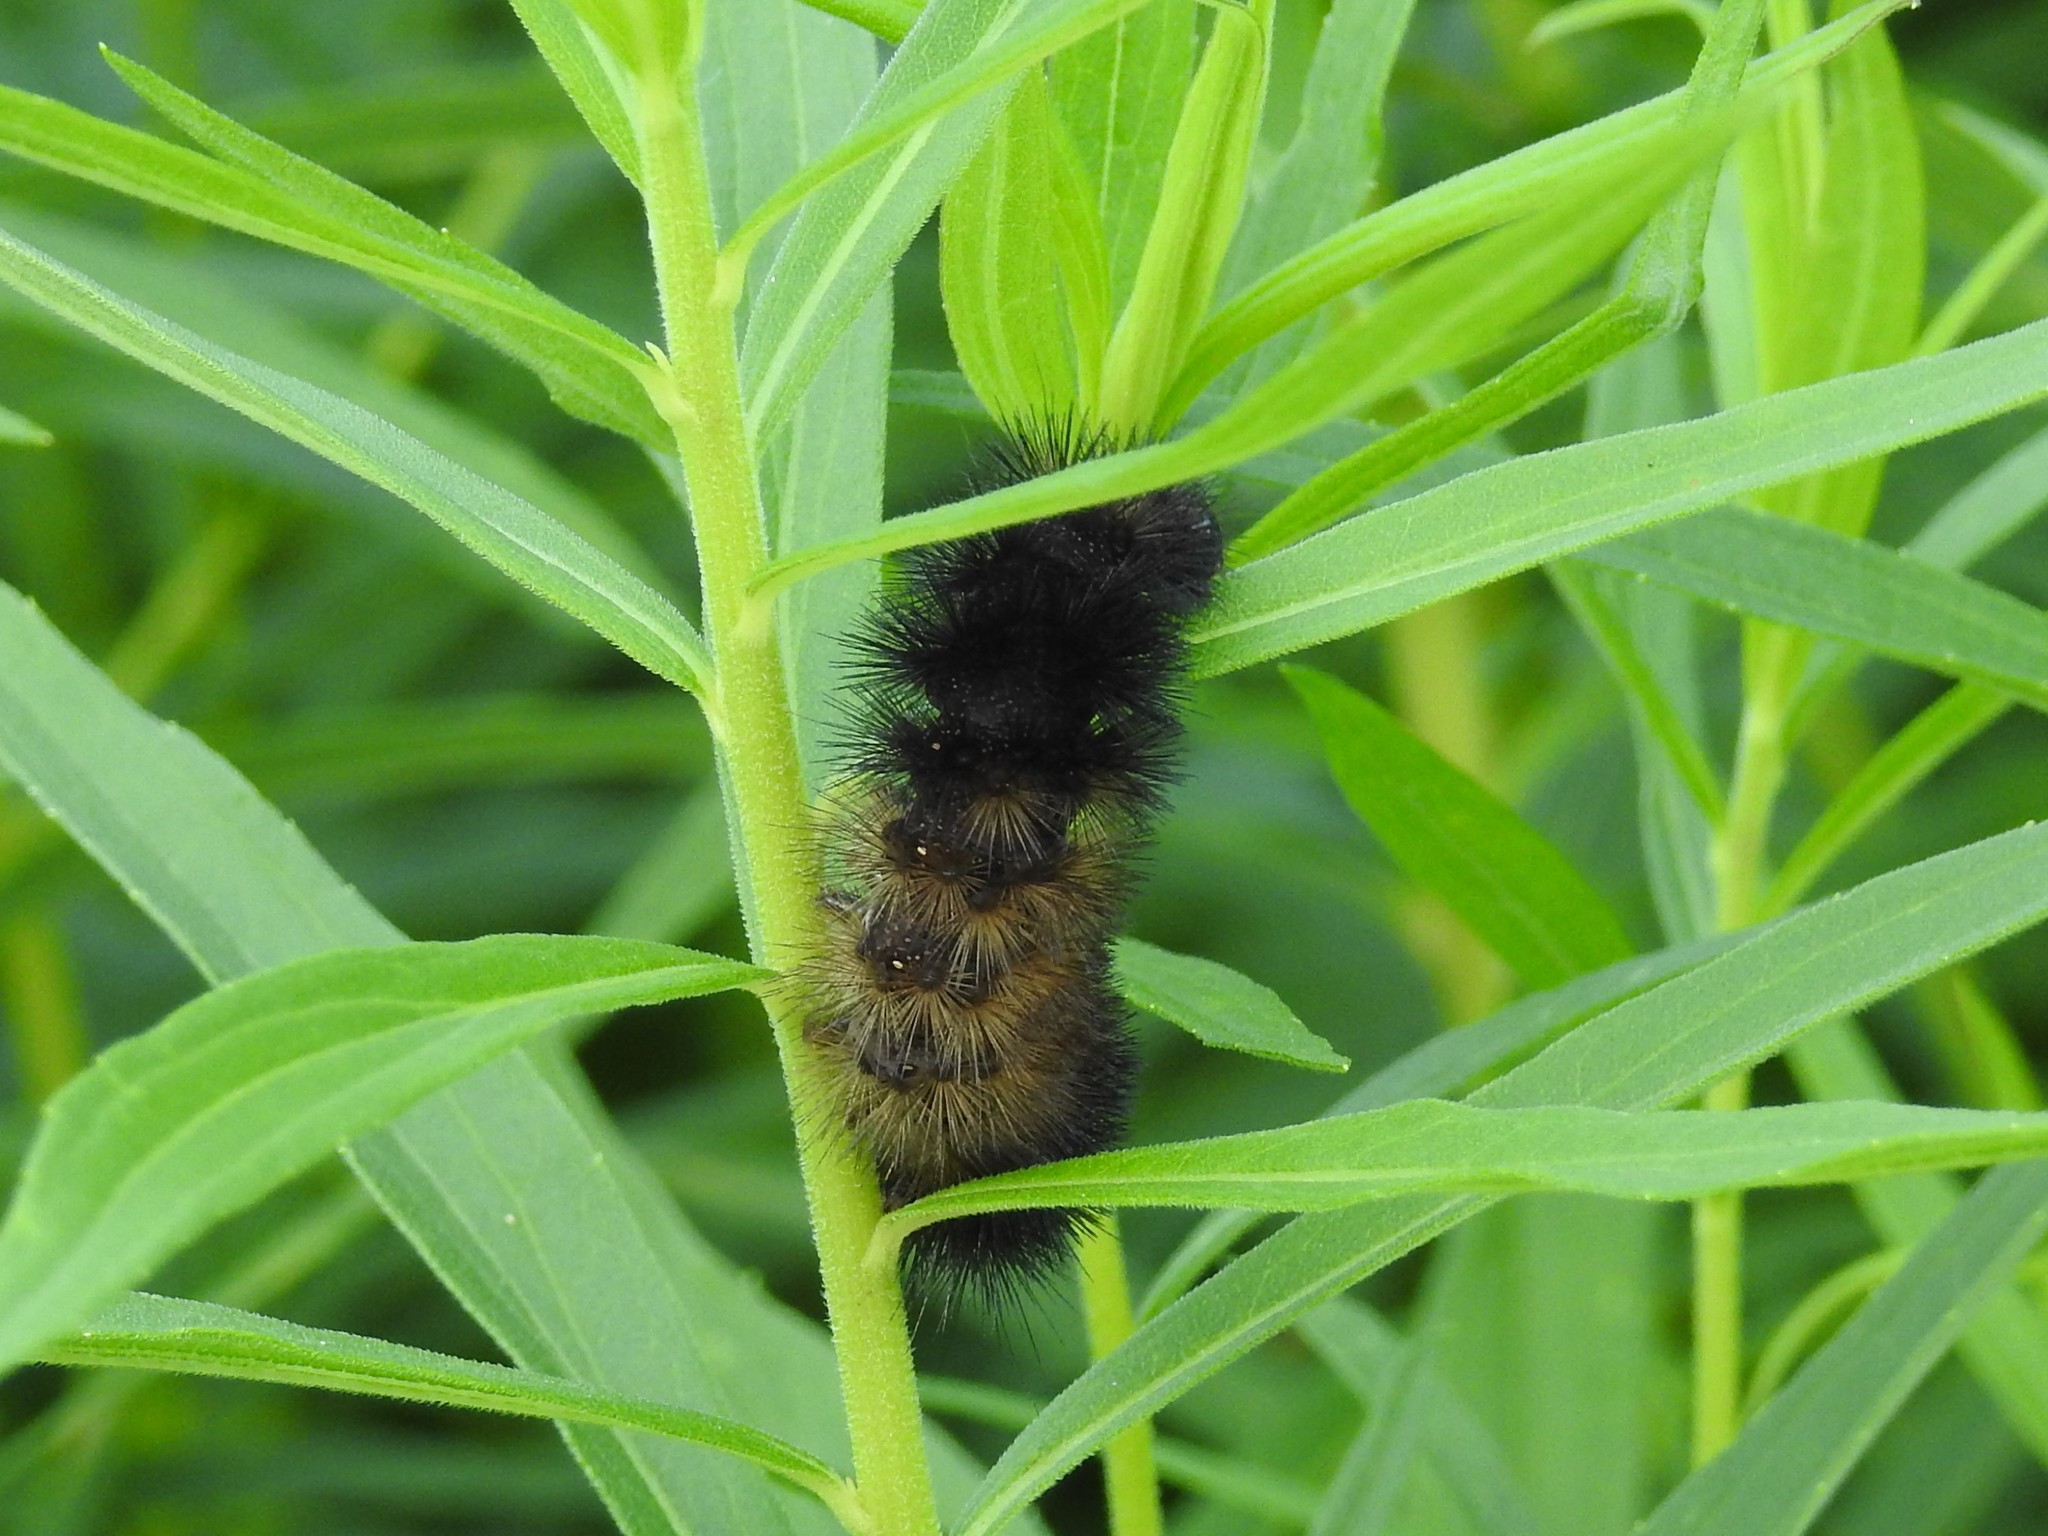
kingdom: Animalia
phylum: Arthropoda
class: Insecta
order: Lepidoptera
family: Erebidae
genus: Pyrrharctia
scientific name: Pyrrharctia isabella
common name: Isabella tiger moth
